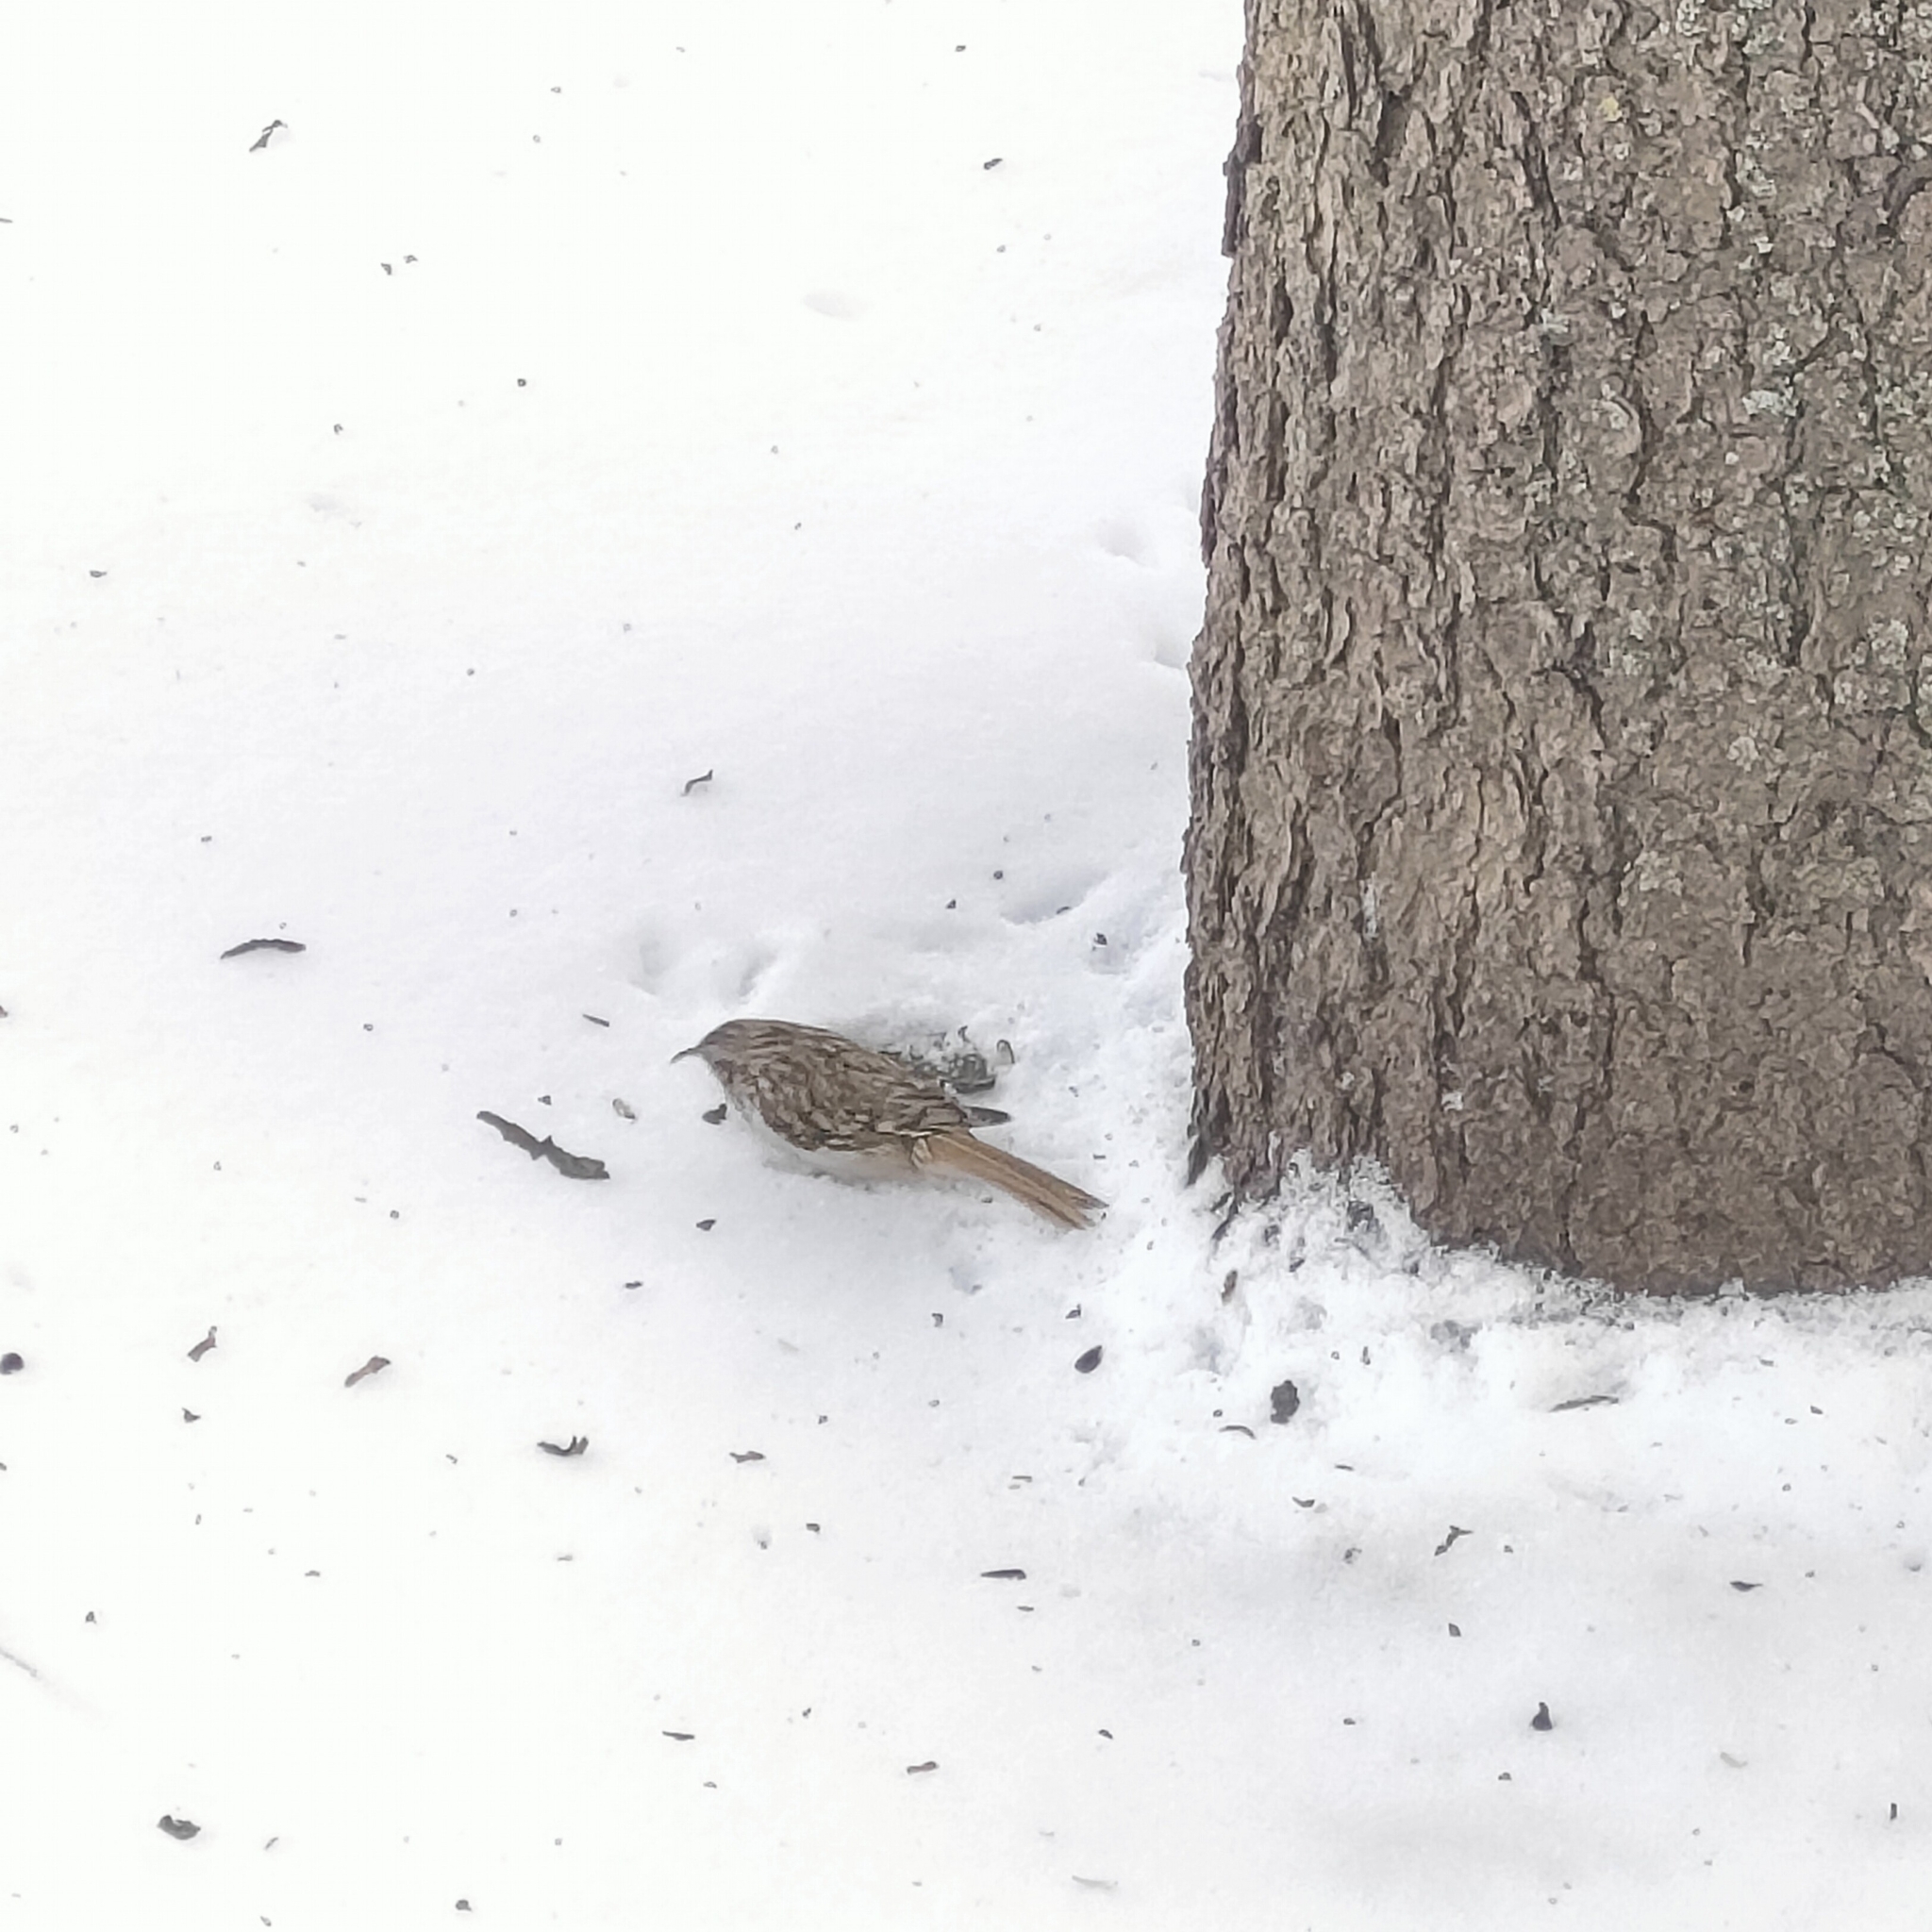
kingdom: Animalia
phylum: Chordata
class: Aves
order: Passeriformes
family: Certhiidae
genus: Certhia
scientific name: Certhia familiaris
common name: Eurasian treecreeper
